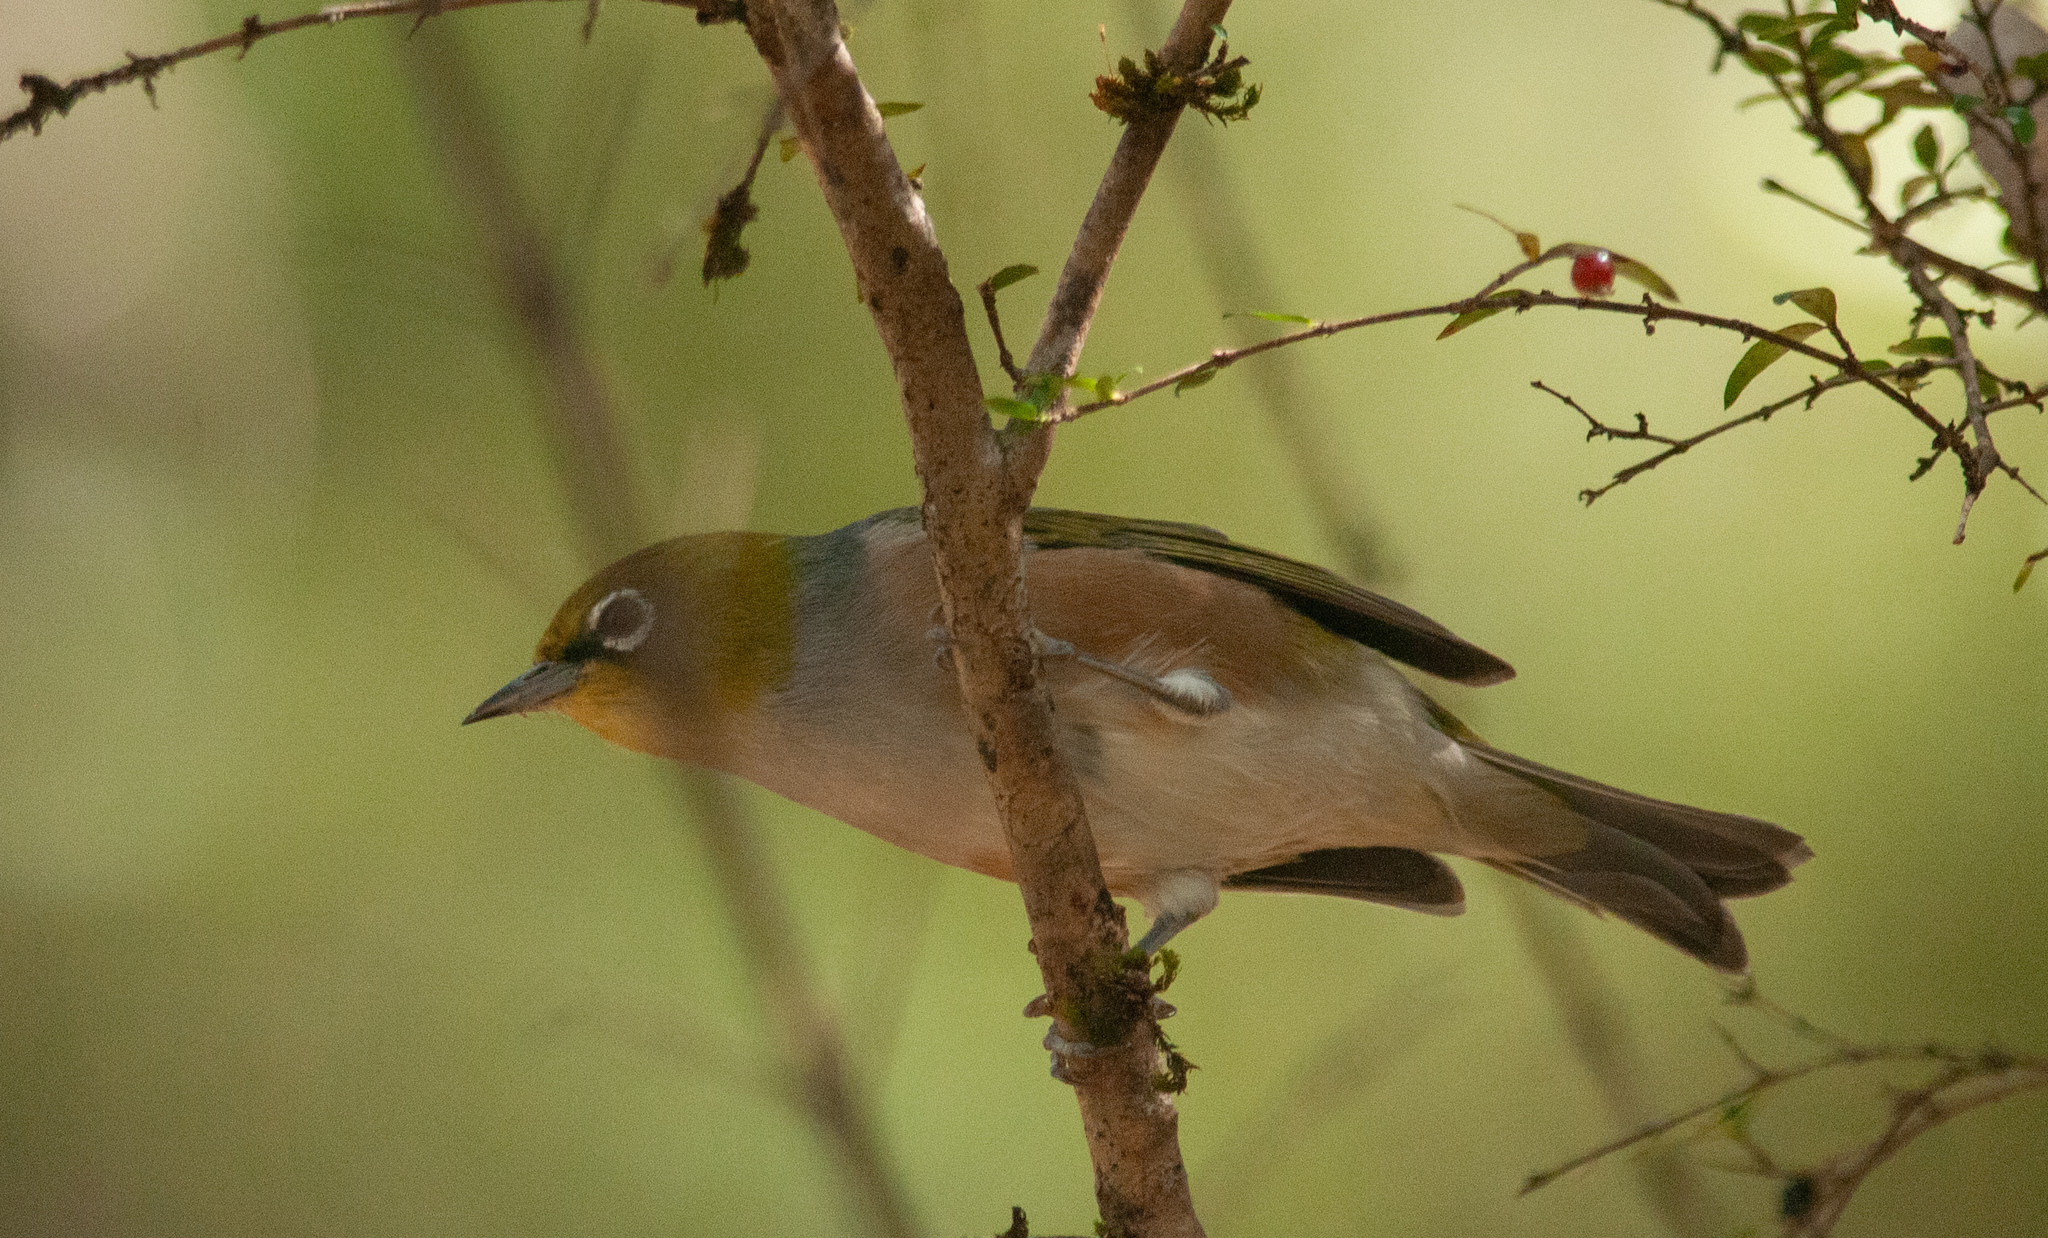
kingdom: Animalia
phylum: Chordata
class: Aves
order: Passeriformes
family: Zosteropidae
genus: Zosterops
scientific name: Zosterops lateralis
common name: Silvereye
